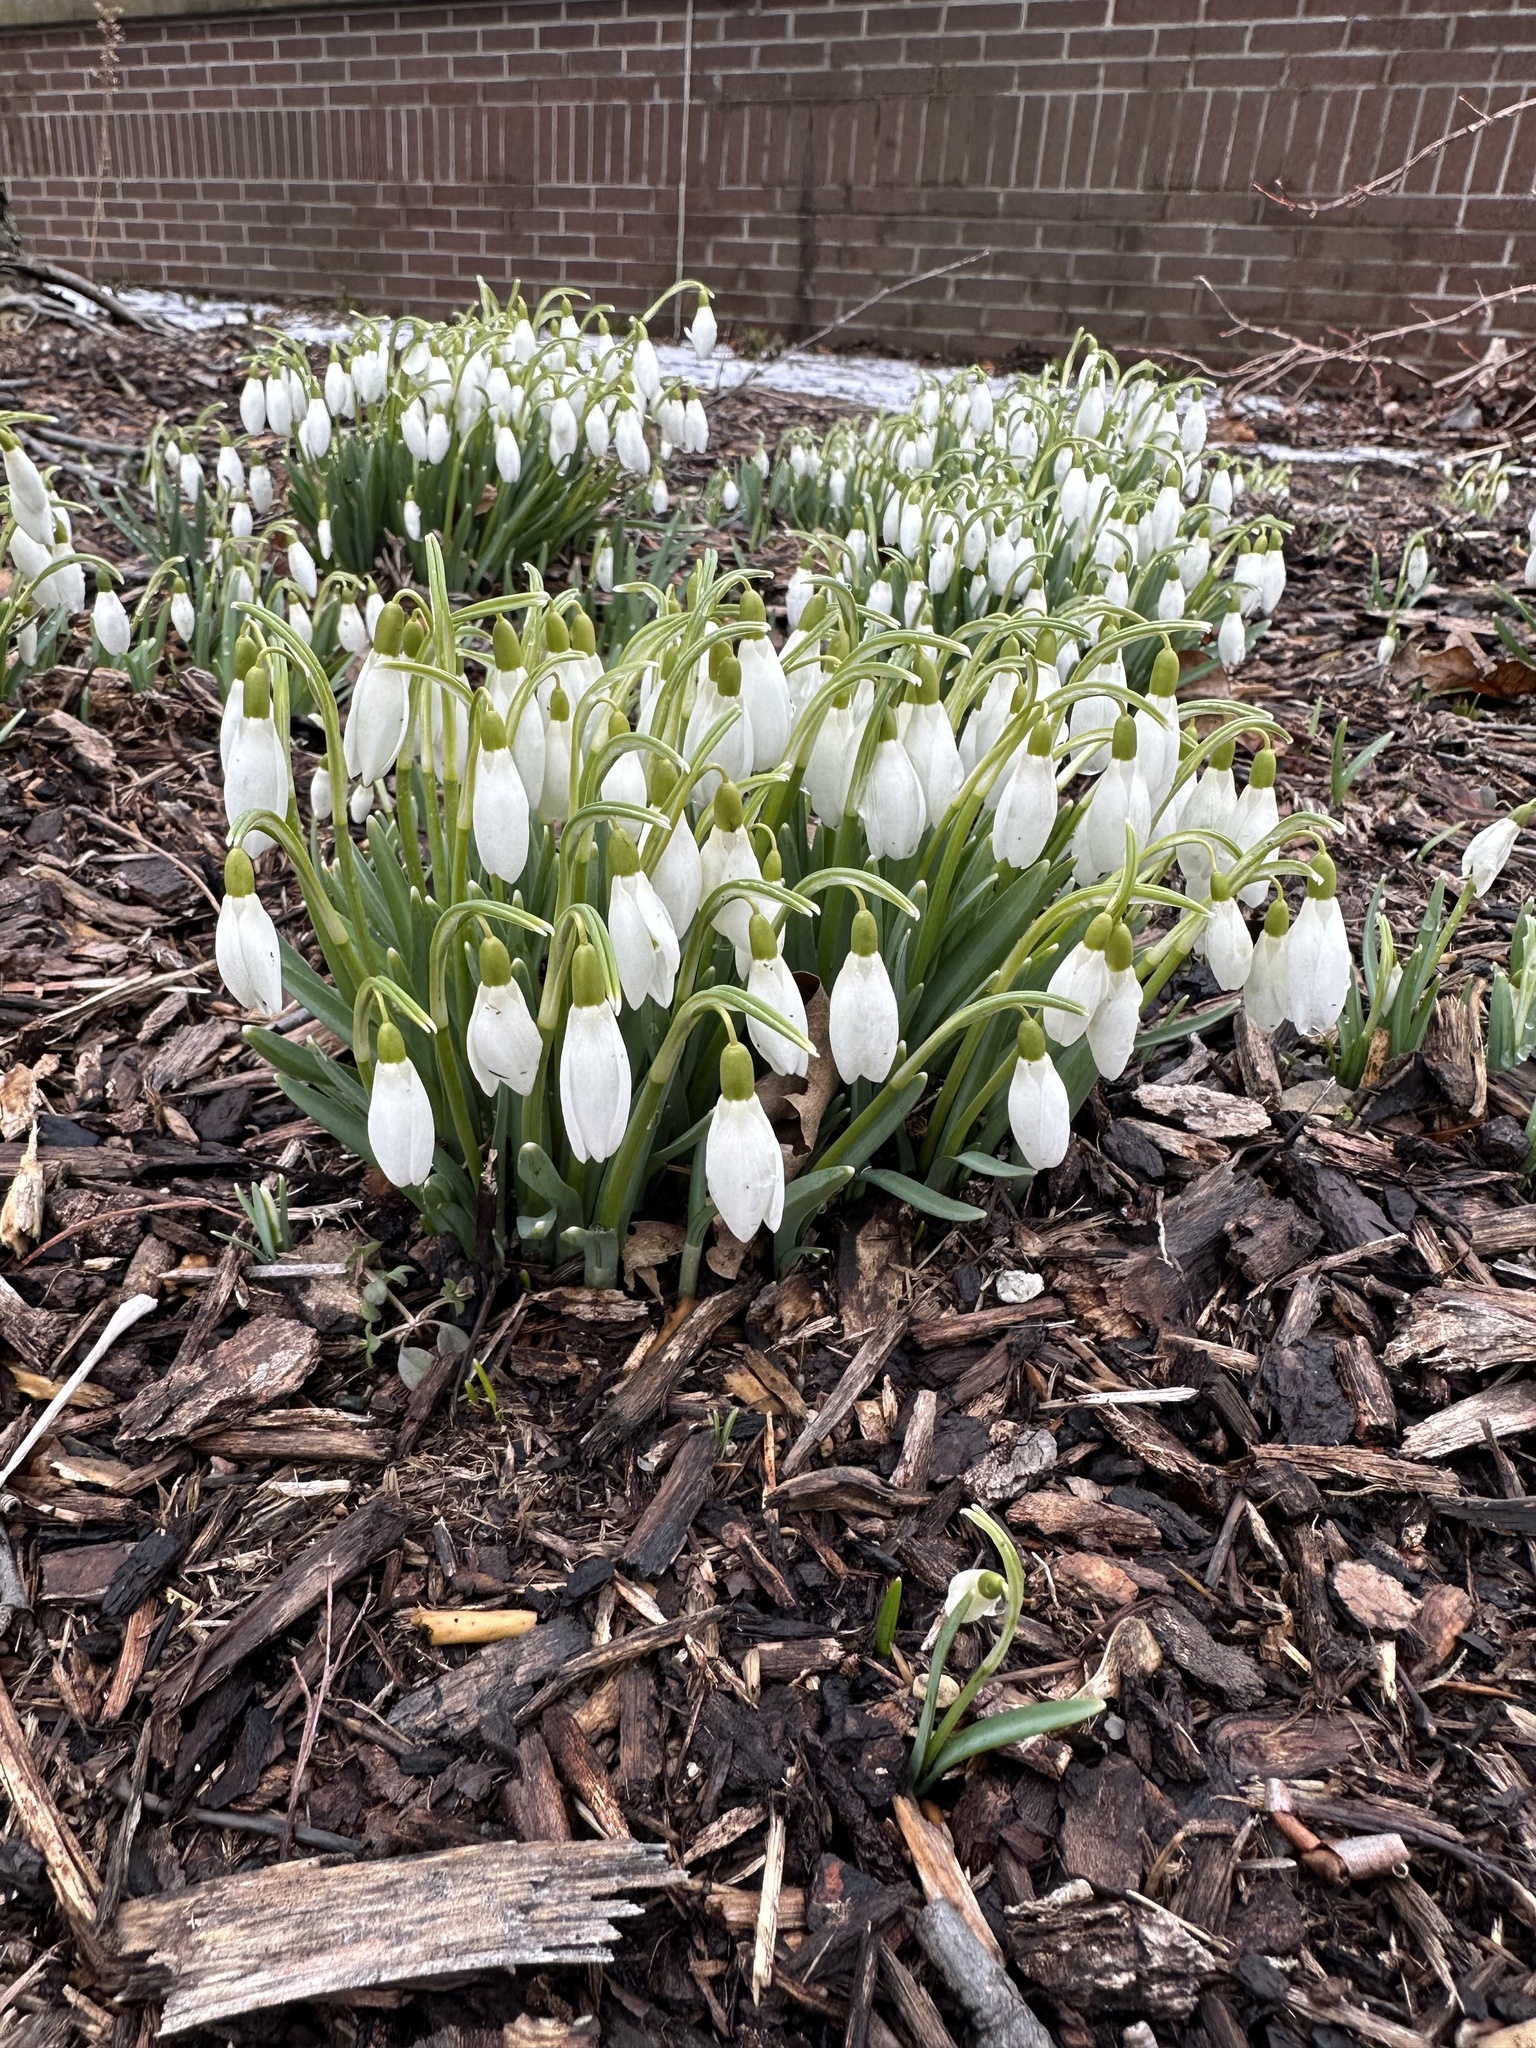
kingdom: Plantae
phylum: Tracheophyta
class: Liliopsida
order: Asparagales
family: Amaryllidaceae
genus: Galanthus
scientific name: Galanthus nivalis
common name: Snowdrop
